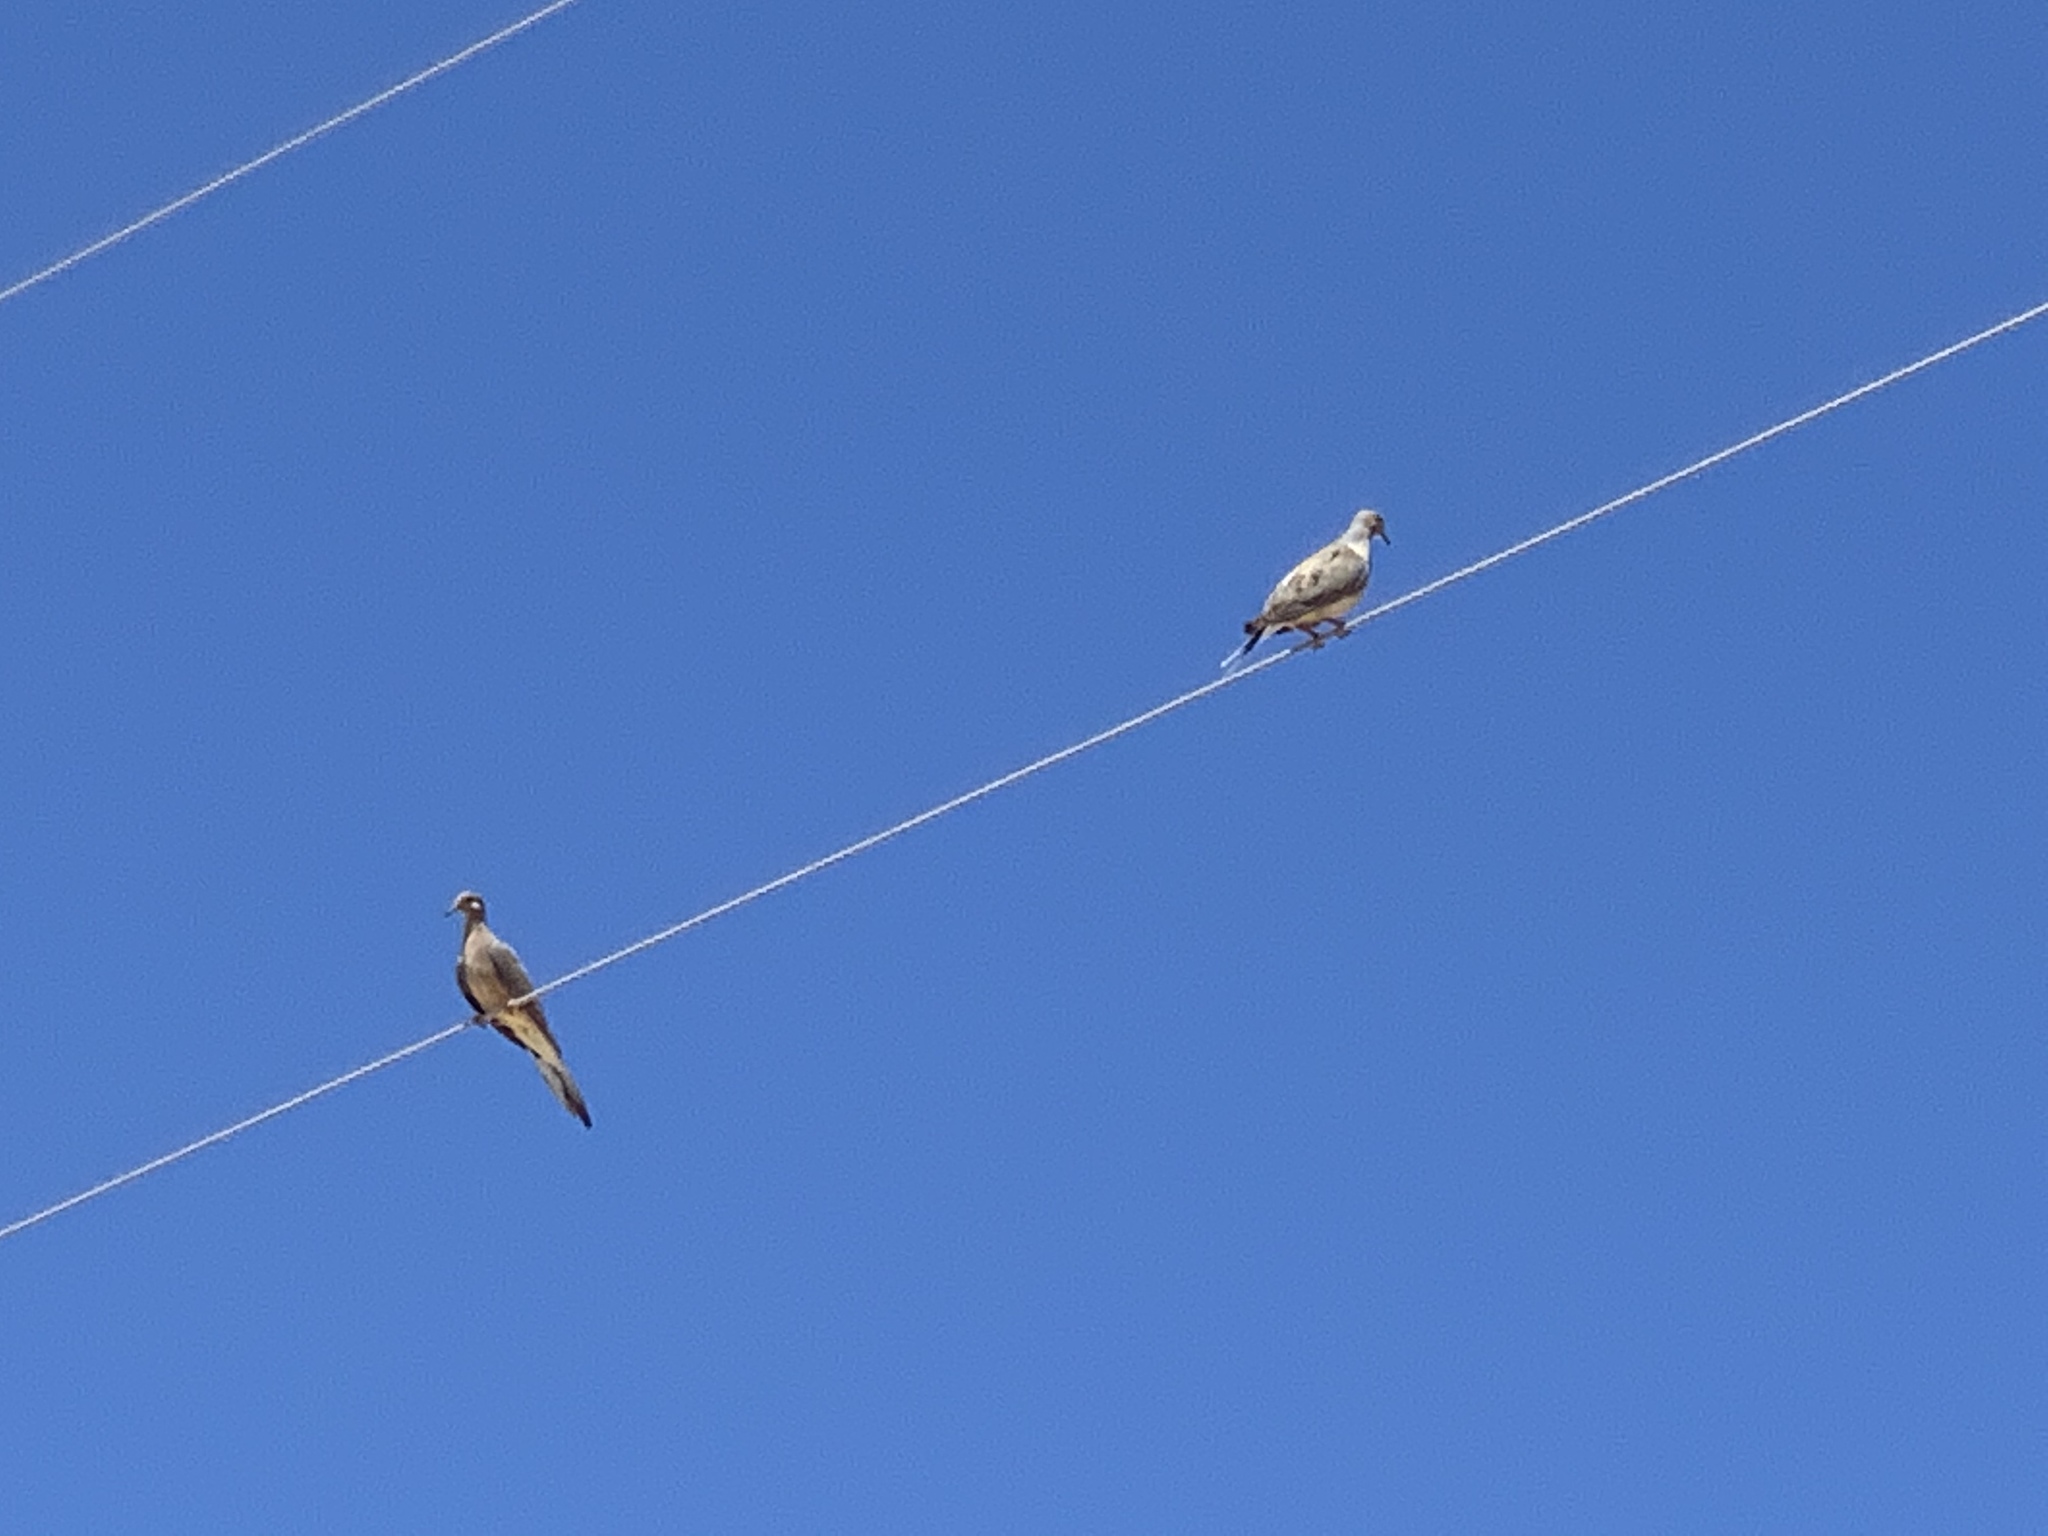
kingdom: Animalia
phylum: Chordata
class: Aves
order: Columbiformes
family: Columbidae
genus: Zenaida
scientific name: Zenaida macroura
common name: Mourning dove
